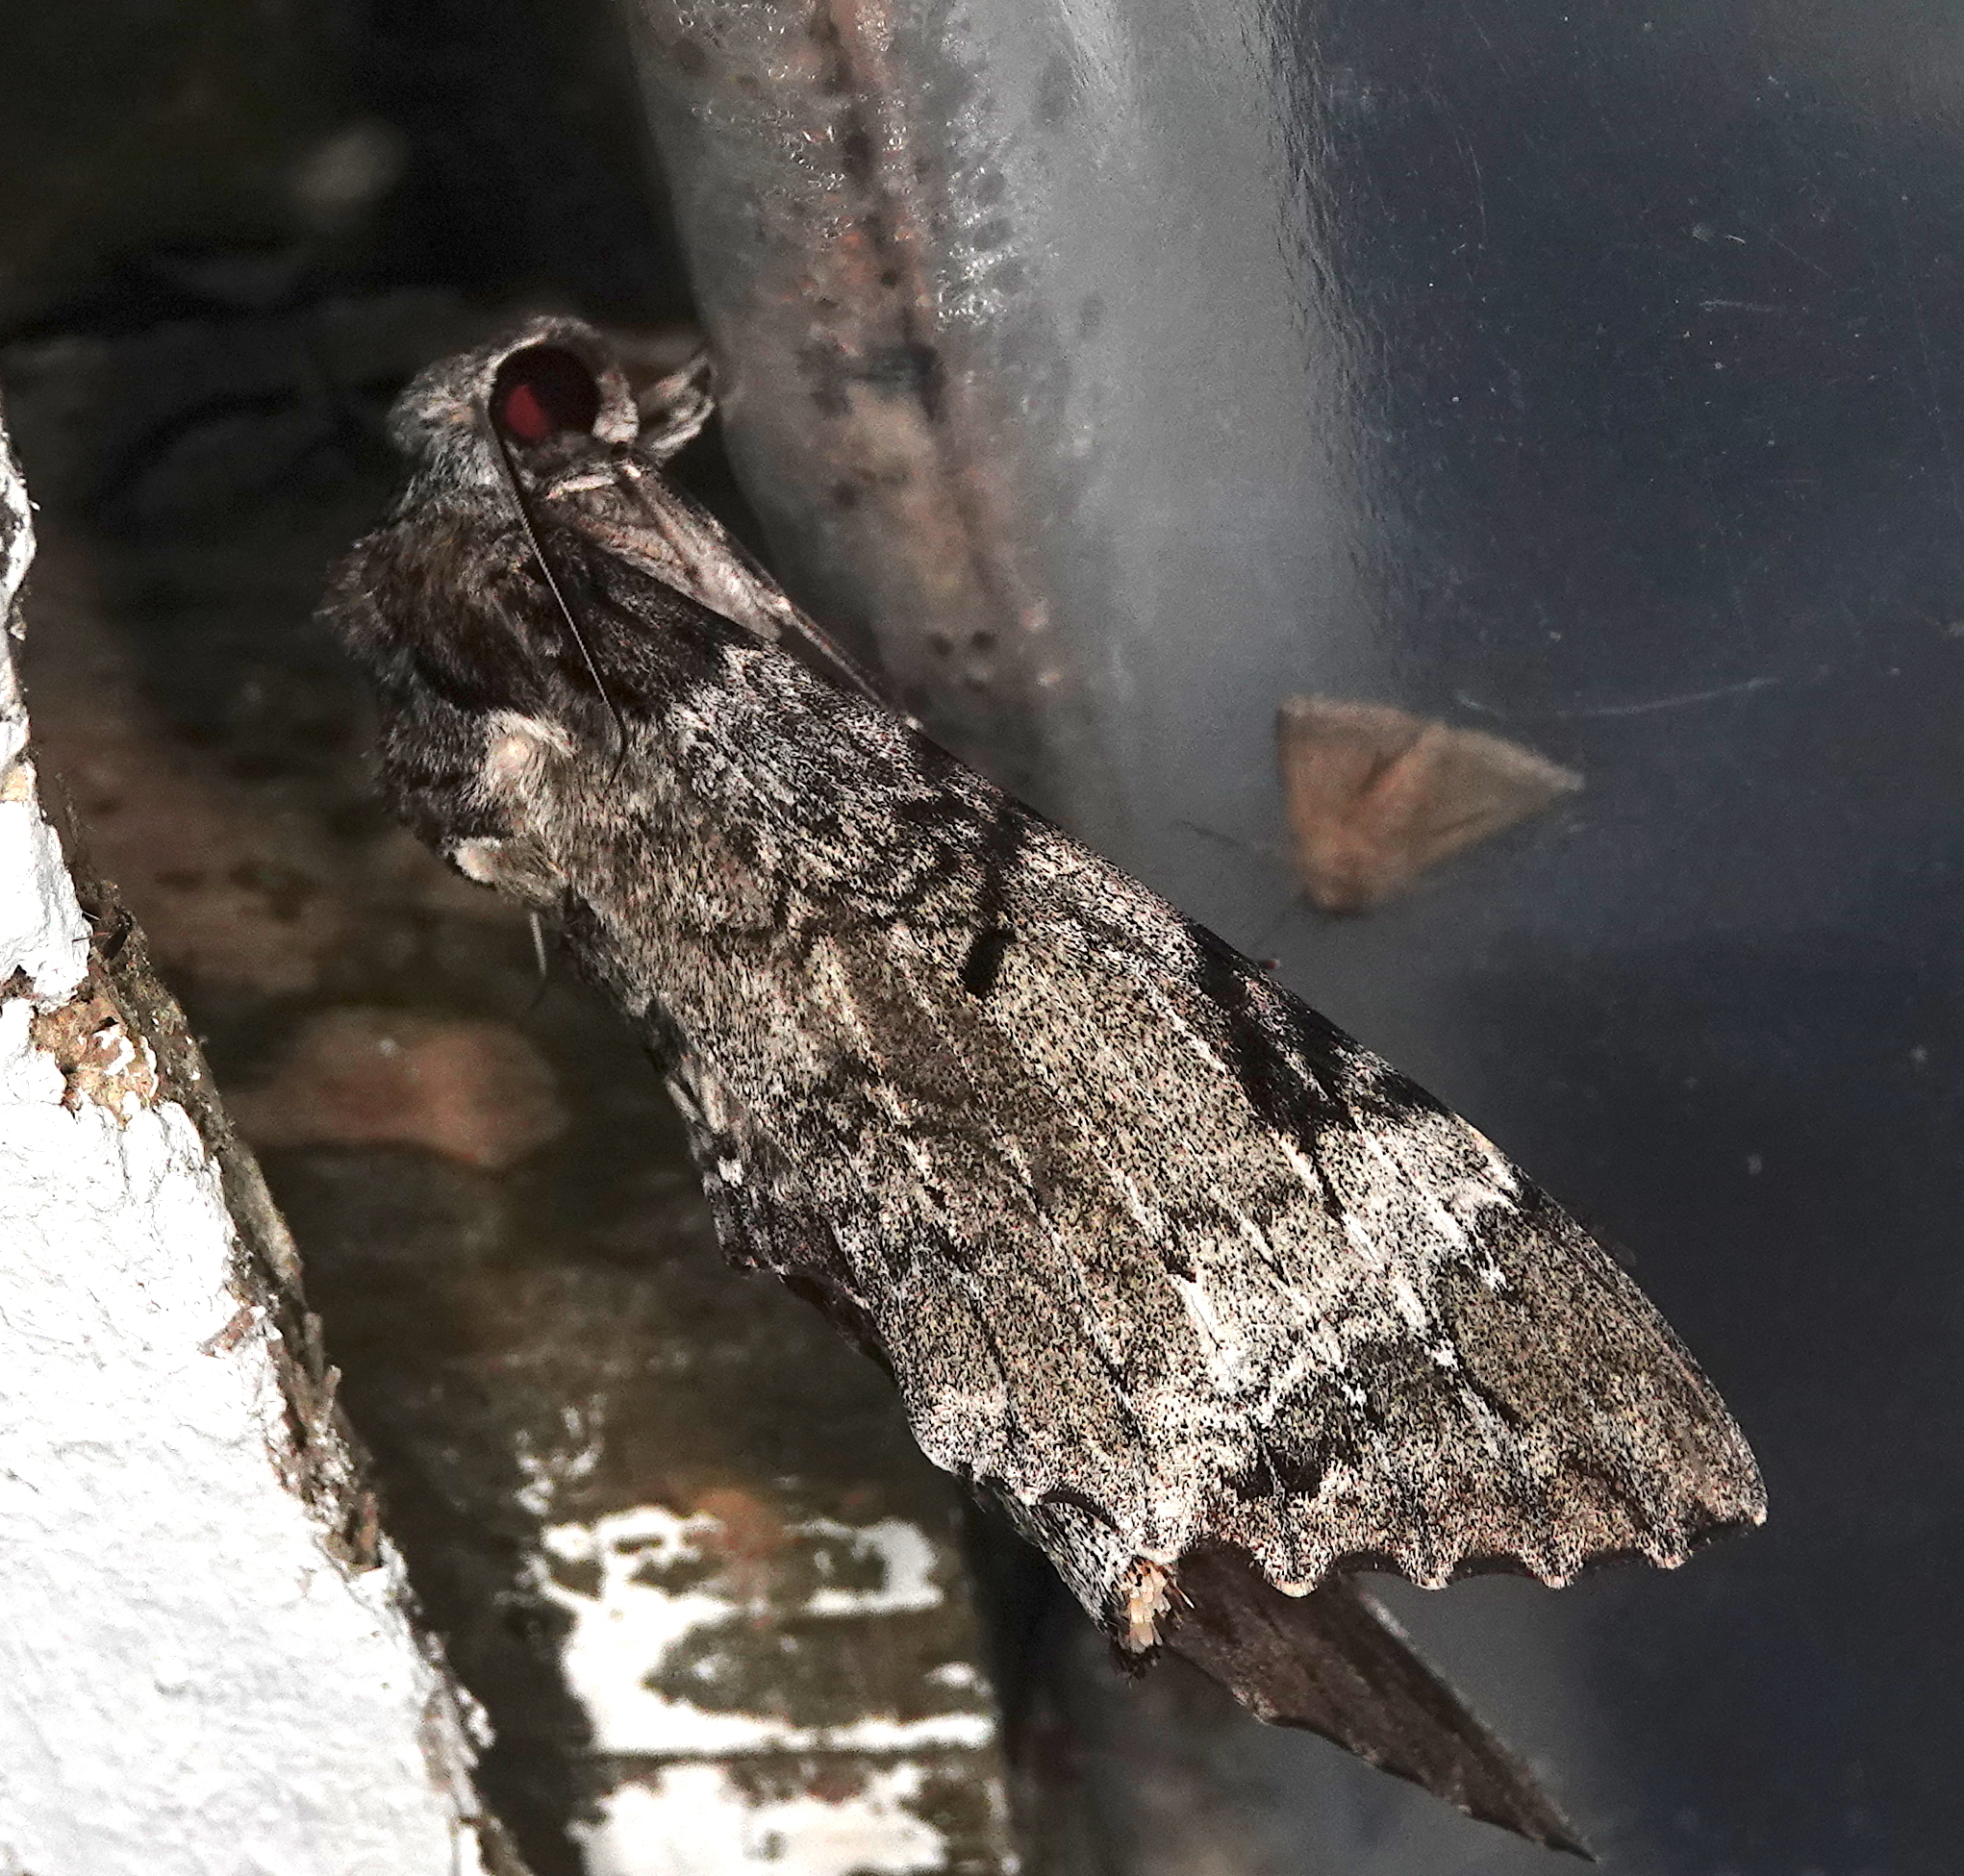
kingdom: Animalia
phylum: Arthropoda
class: Insecta
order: Lepidoptera
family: Sphingidae
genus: Pseudosphinx
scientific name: Pseudosphinx tetrio
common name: Tetrio sphinx
